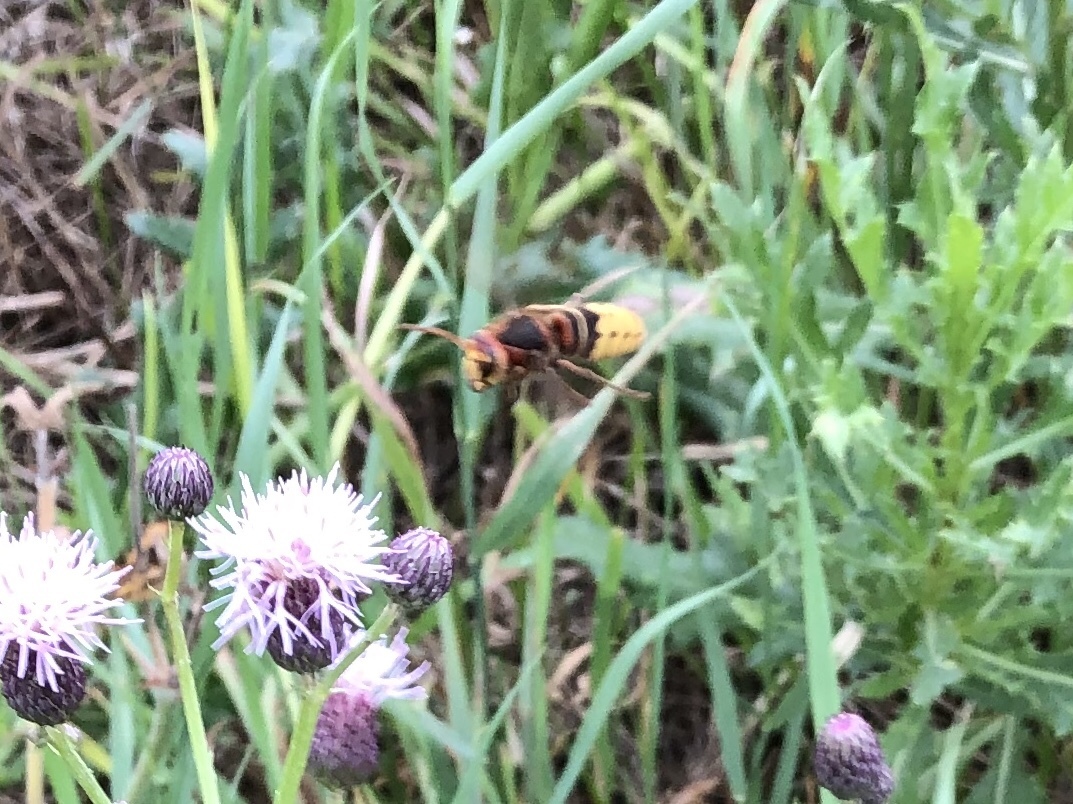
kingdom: Animalia
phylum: Arthropoda
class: Insecta
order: Hymenoptera
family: Vespidae
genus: Vespa
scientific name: Vespa crabro
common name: Hornet
